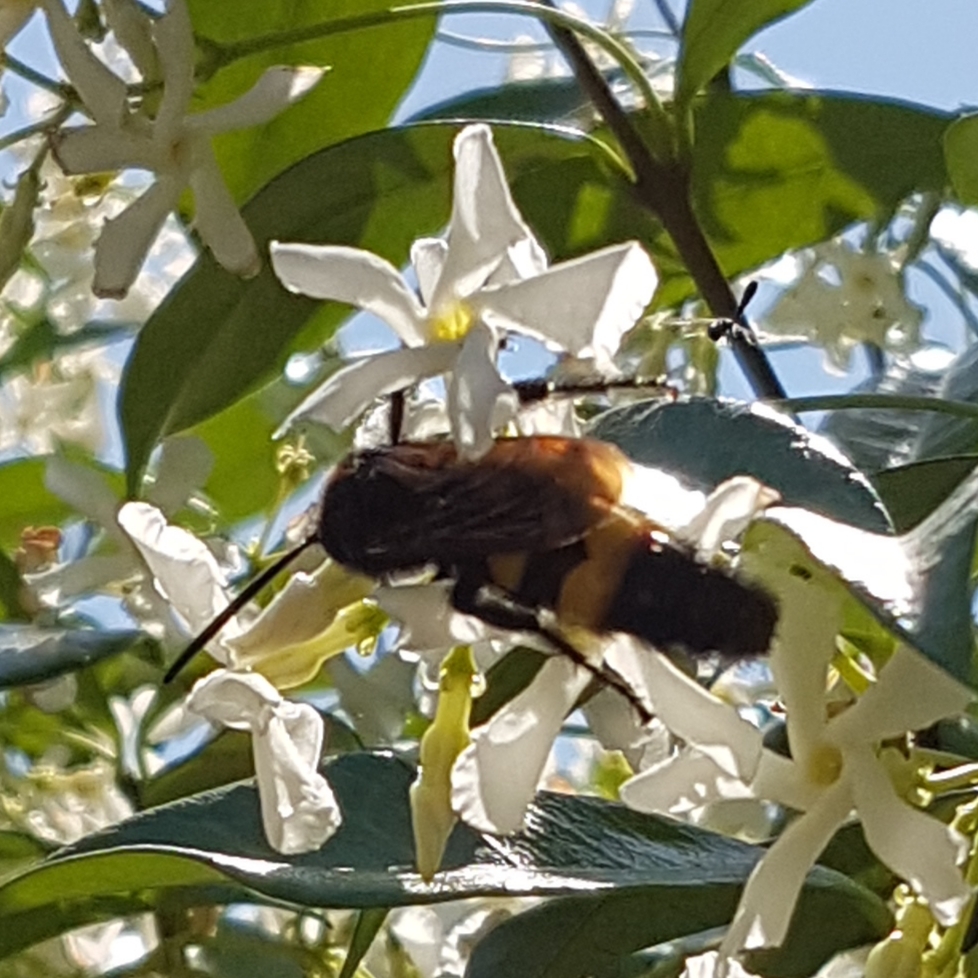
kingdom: Animalia
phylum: Arthropoda
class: Insecta
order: Hymenoptera
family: Scoliidae
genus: Megascolia
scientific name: Megascolia maculata
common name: Mammoth wasp
